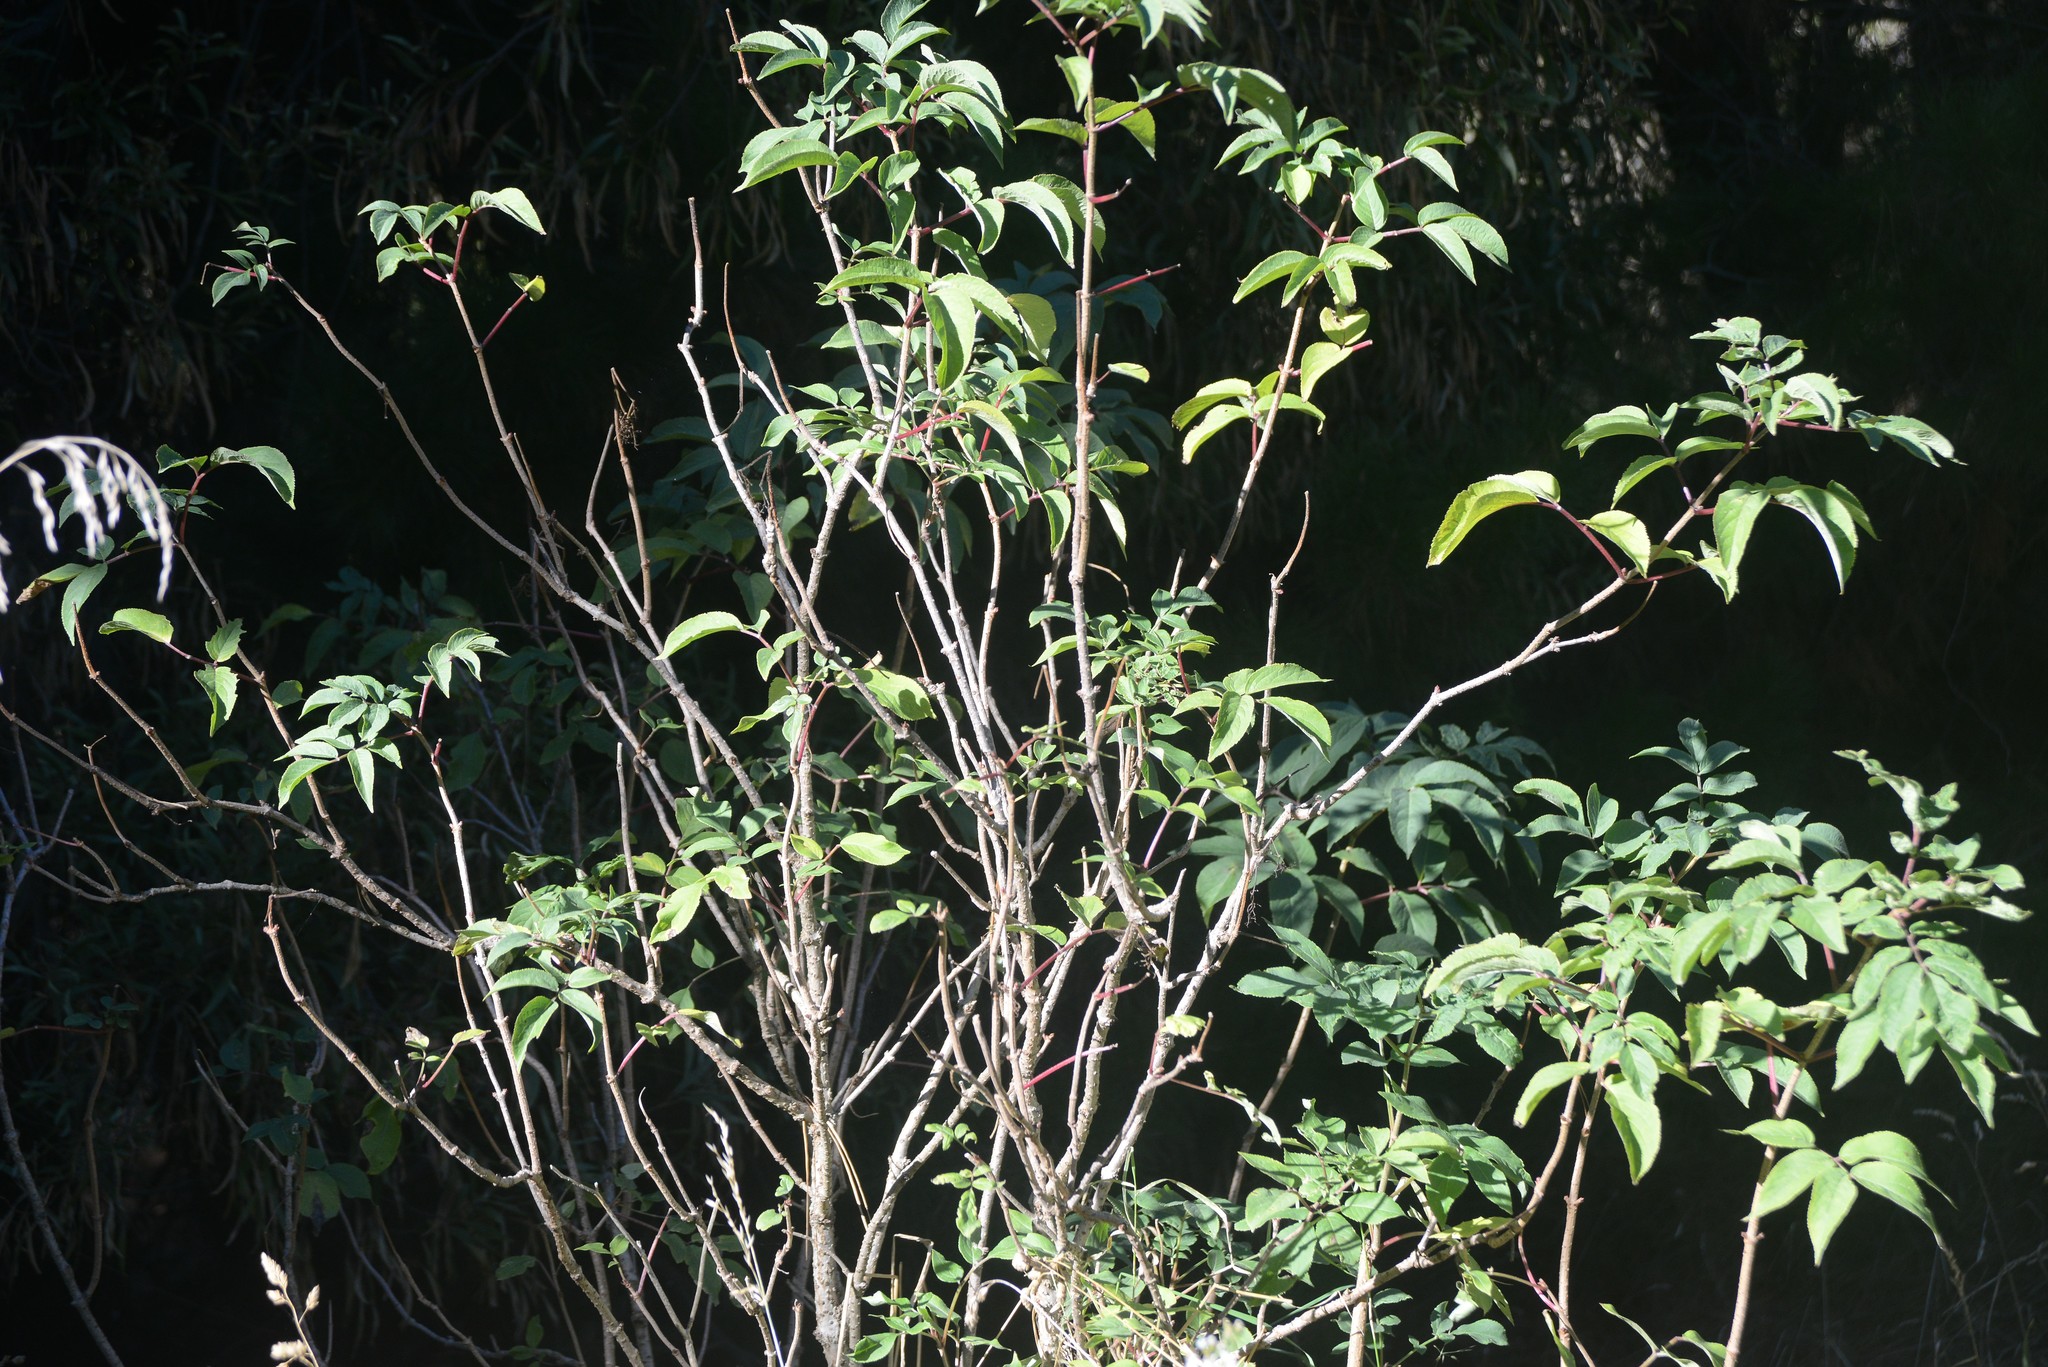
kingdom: Plantae
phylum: Tracheophyta
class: Magnoliopsida
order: Dipsacales
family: Viburnaceae
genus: Sambucus
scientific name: Sambucus nigra
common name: Elder
